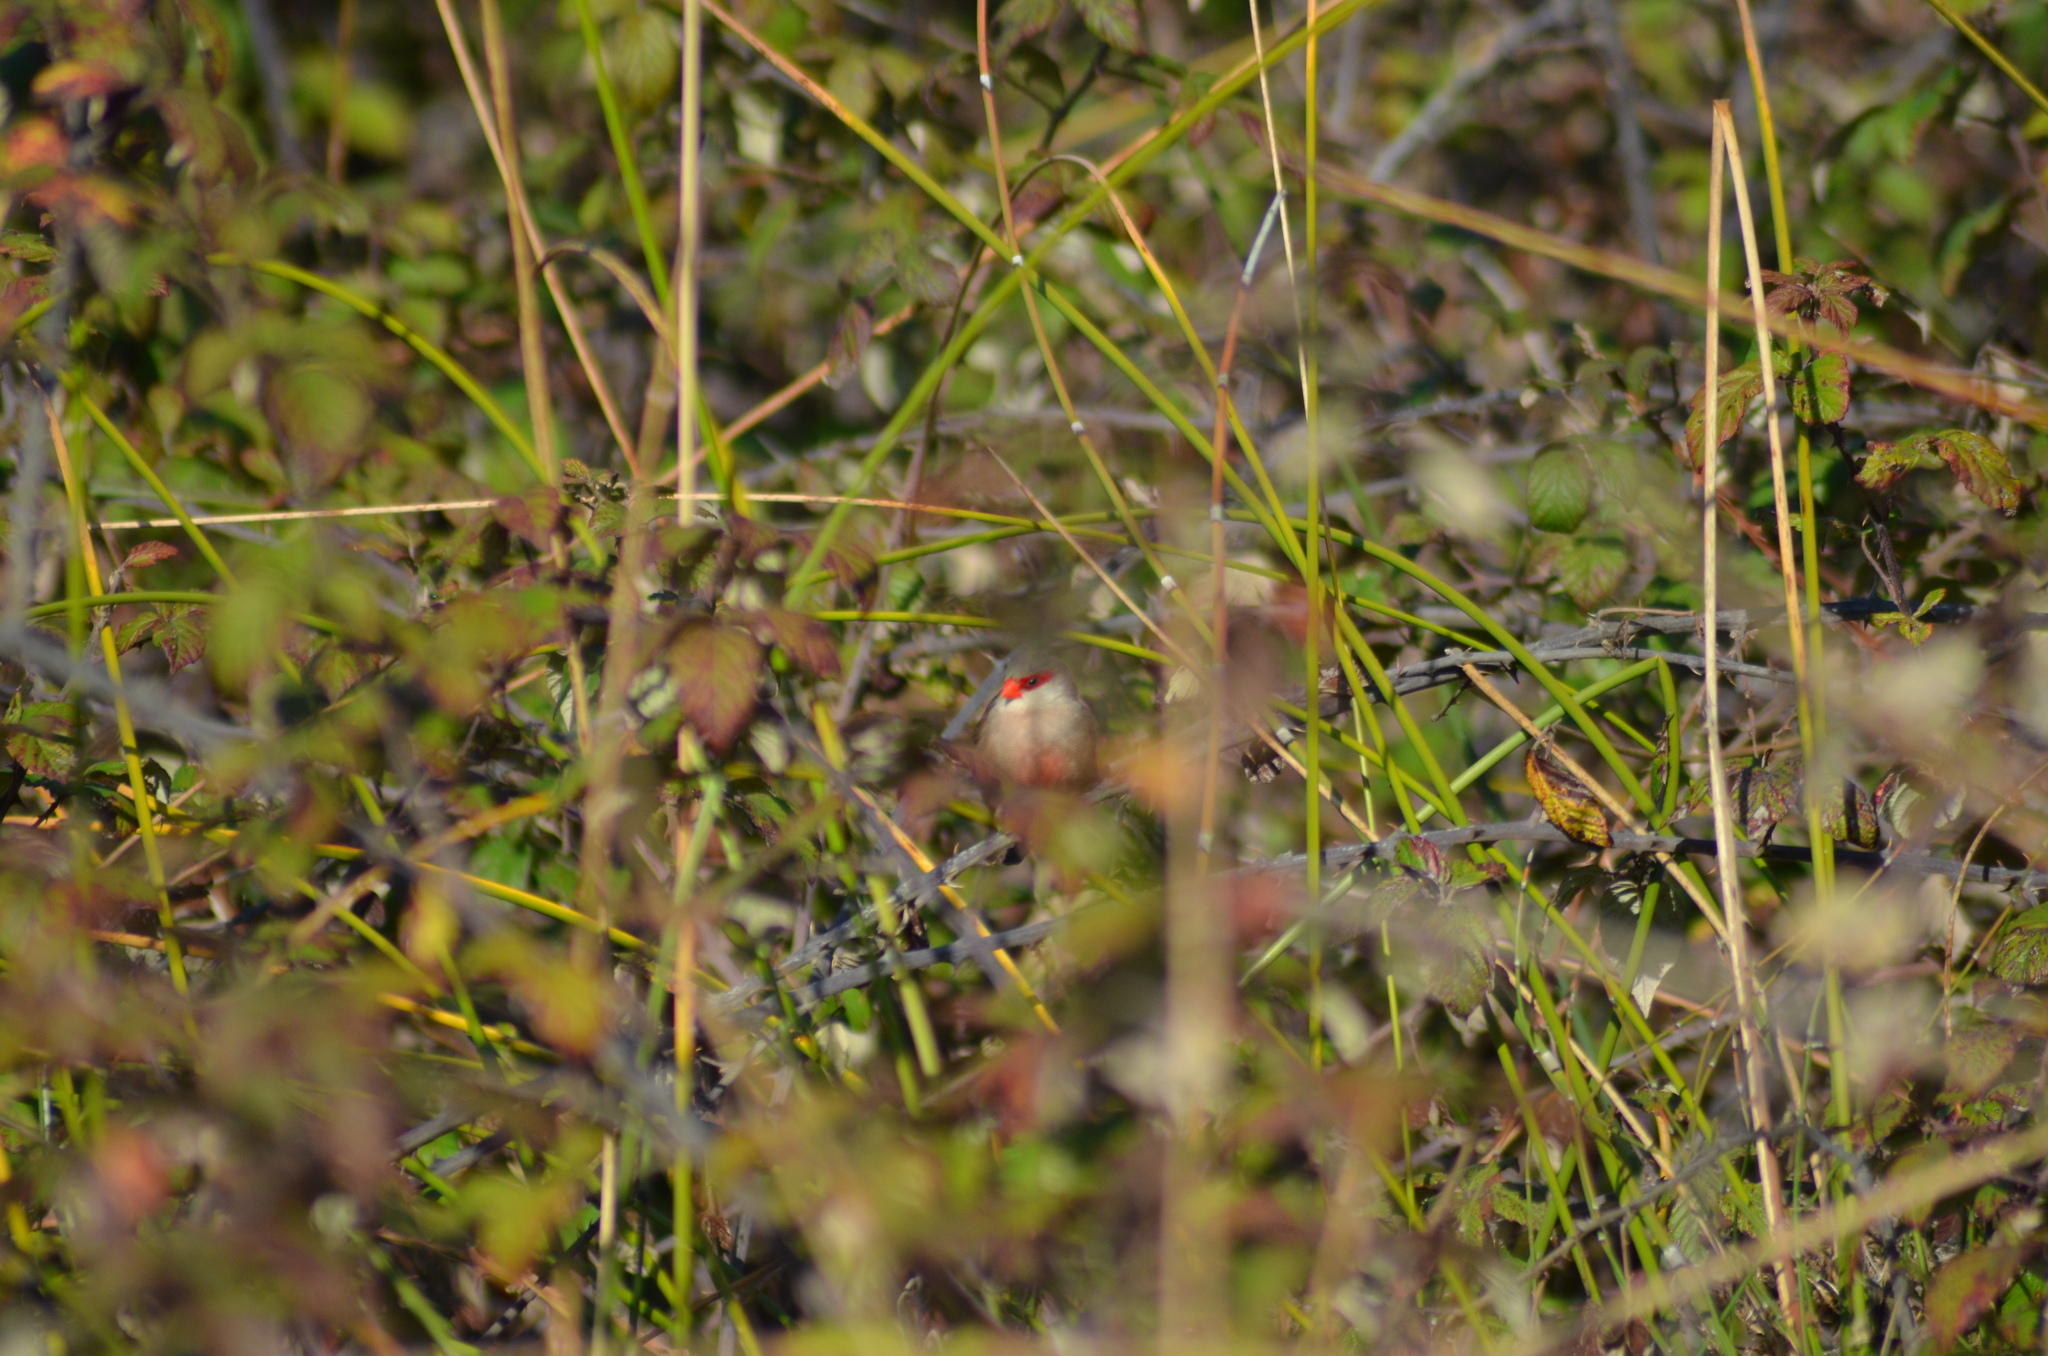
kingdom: Animalia
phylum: Chordata
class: Aves
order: Passeriformes
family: Estrildidae
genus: Estrilda
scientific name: Estrilda astrild
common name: Common waxbill
